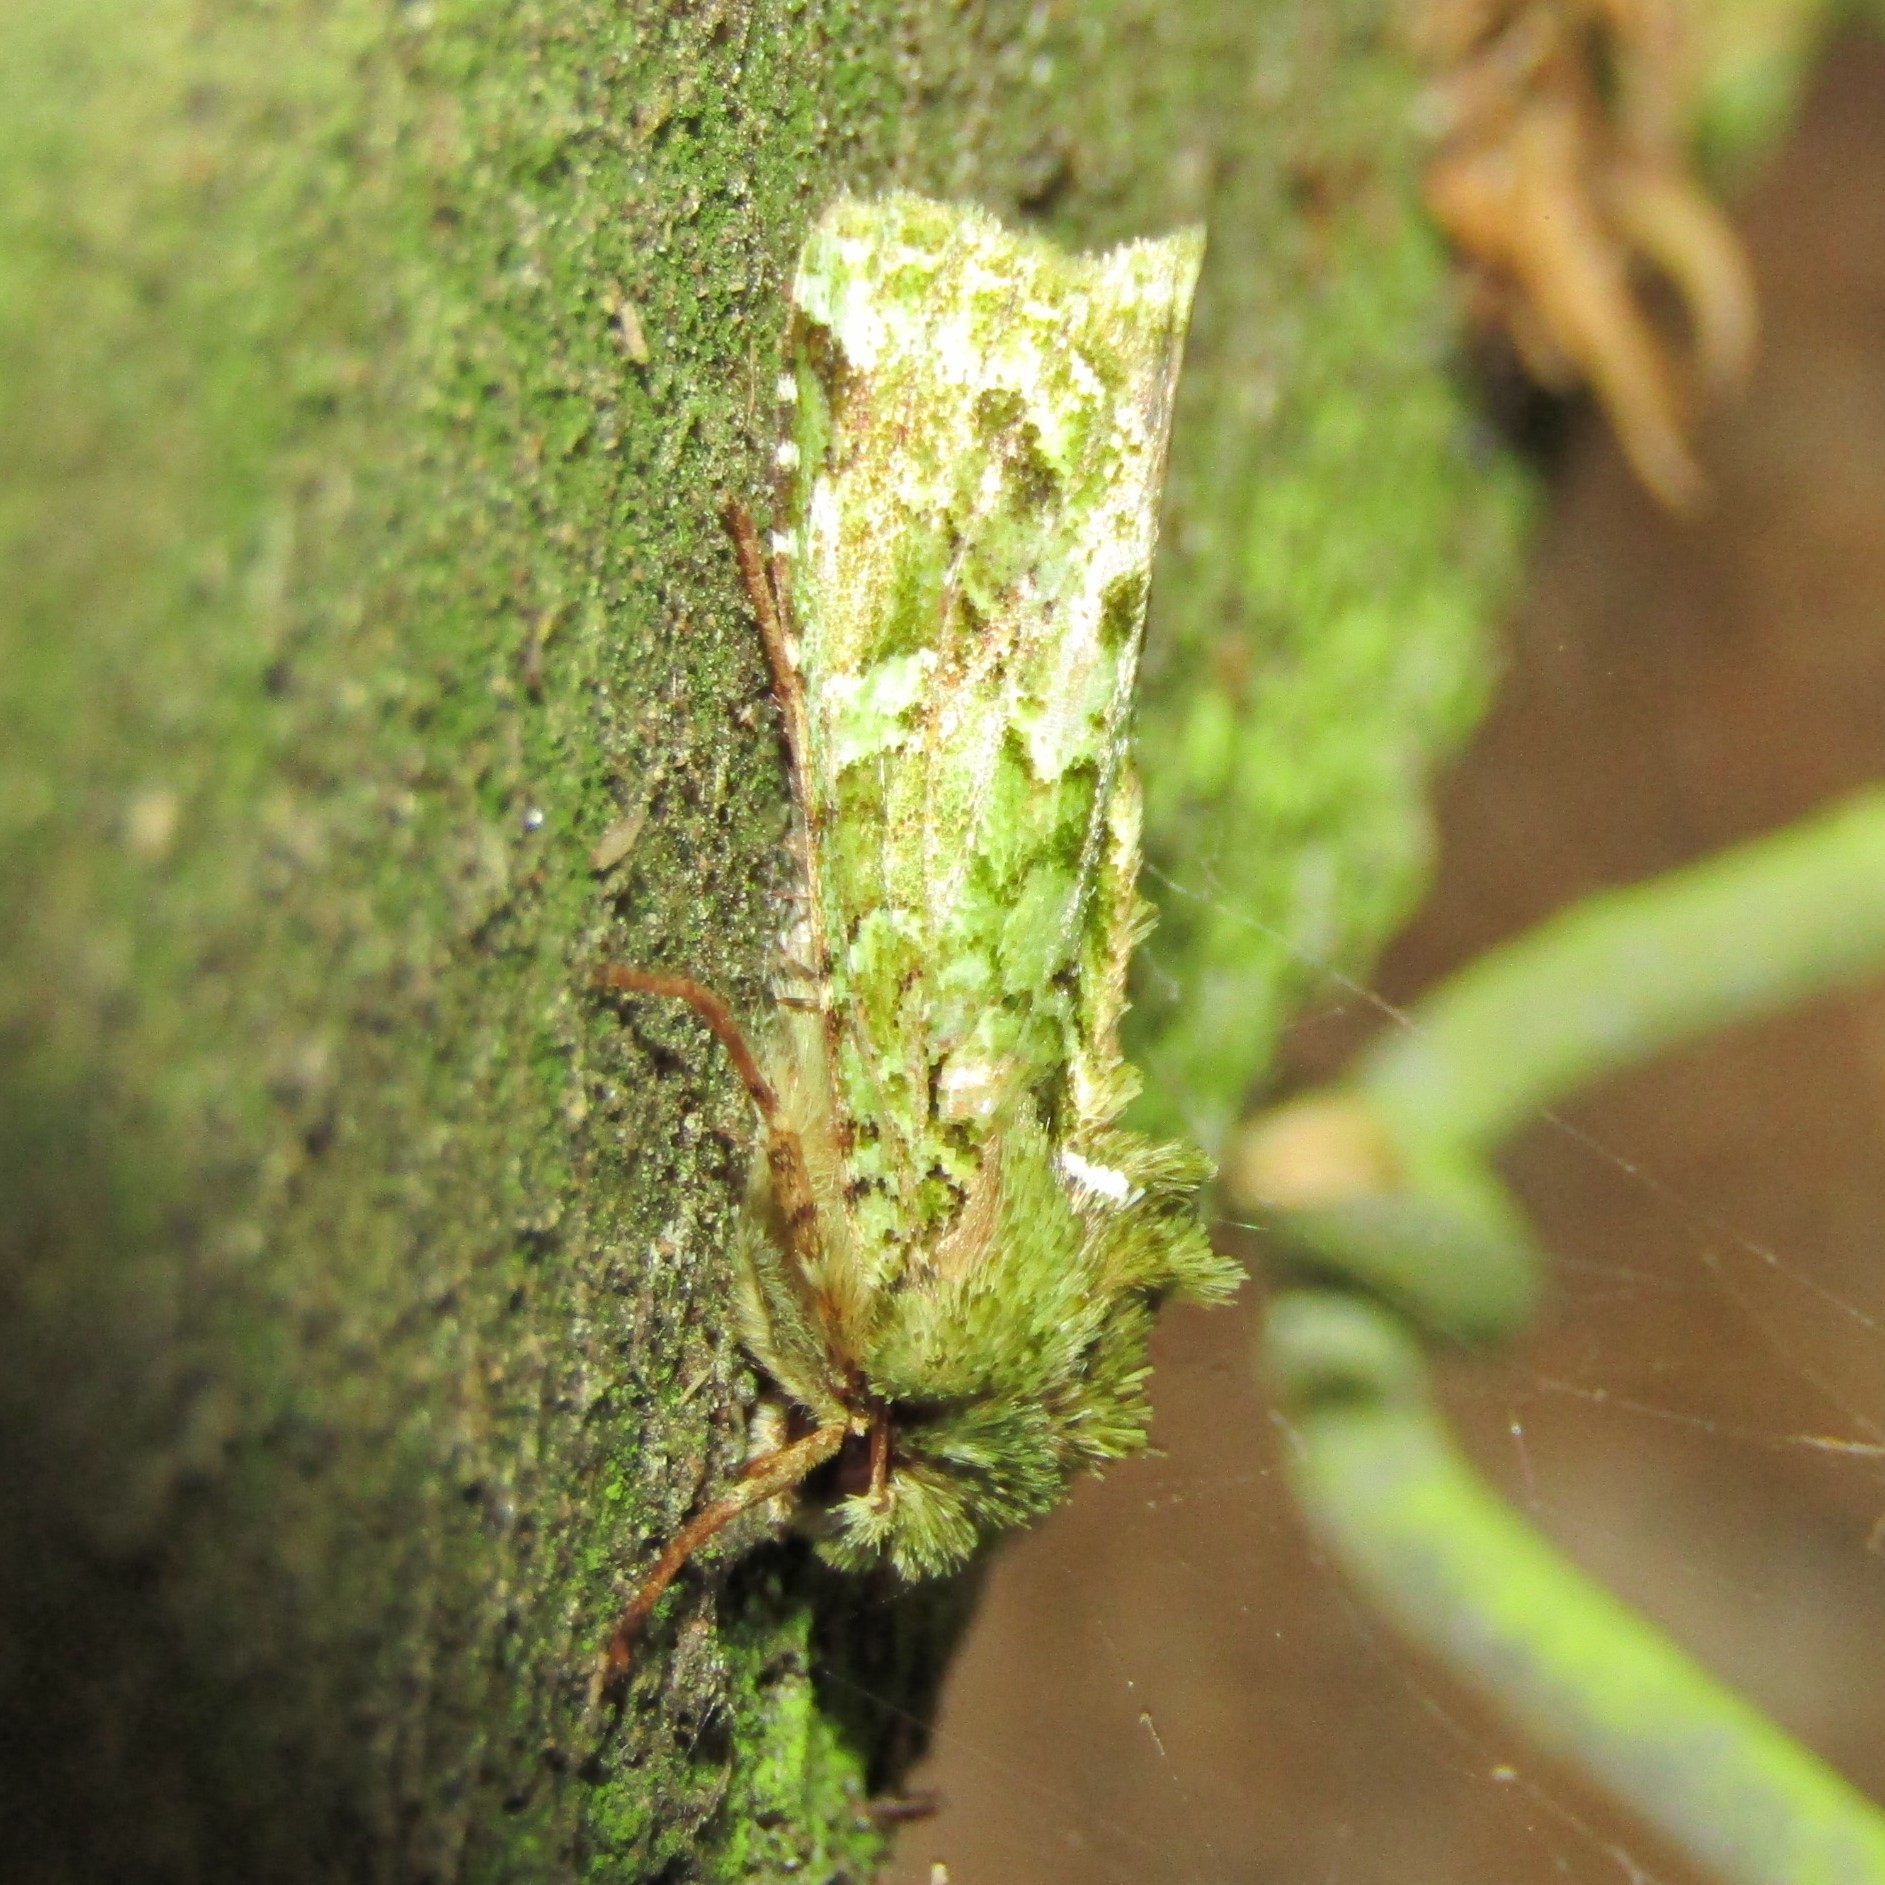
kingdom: Animalia
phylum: Arthropoda
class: Insecta
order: Lepidoptera
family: Noctuidae
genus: Feredayia
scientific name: Feredayia grammosa
